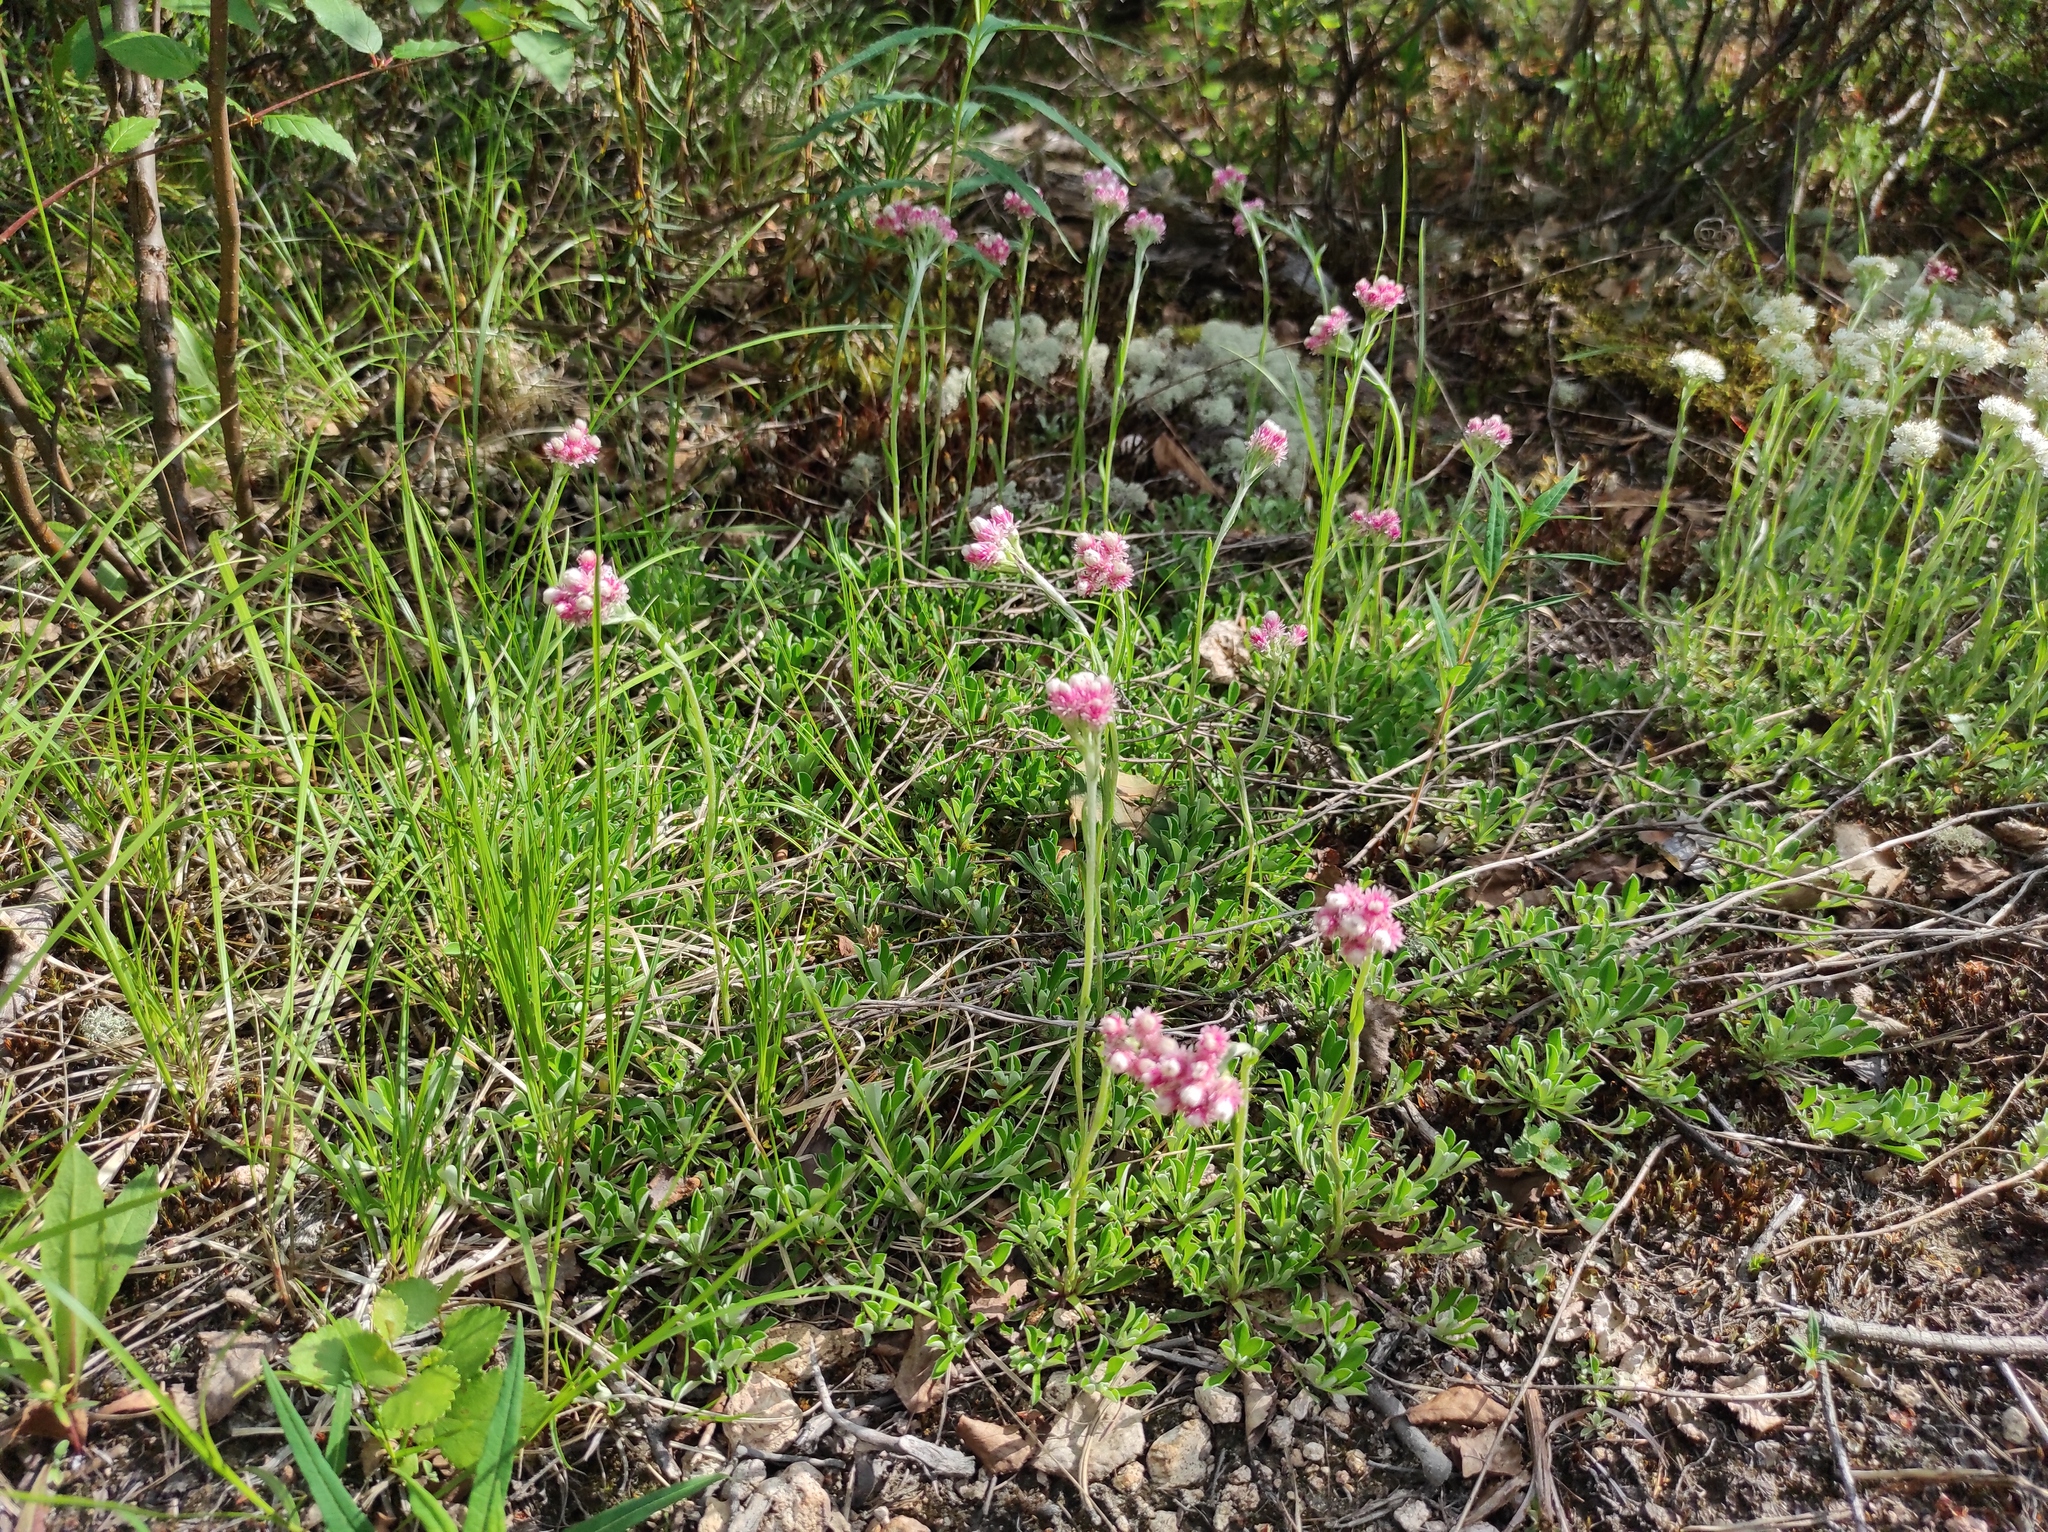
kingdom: Plantae
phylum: Tracheophyta
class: Magnoliopsida
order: Asterales
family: Asteraceae
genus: Antennaria
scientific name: Antennaria dioica
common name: Mountain everlasting
